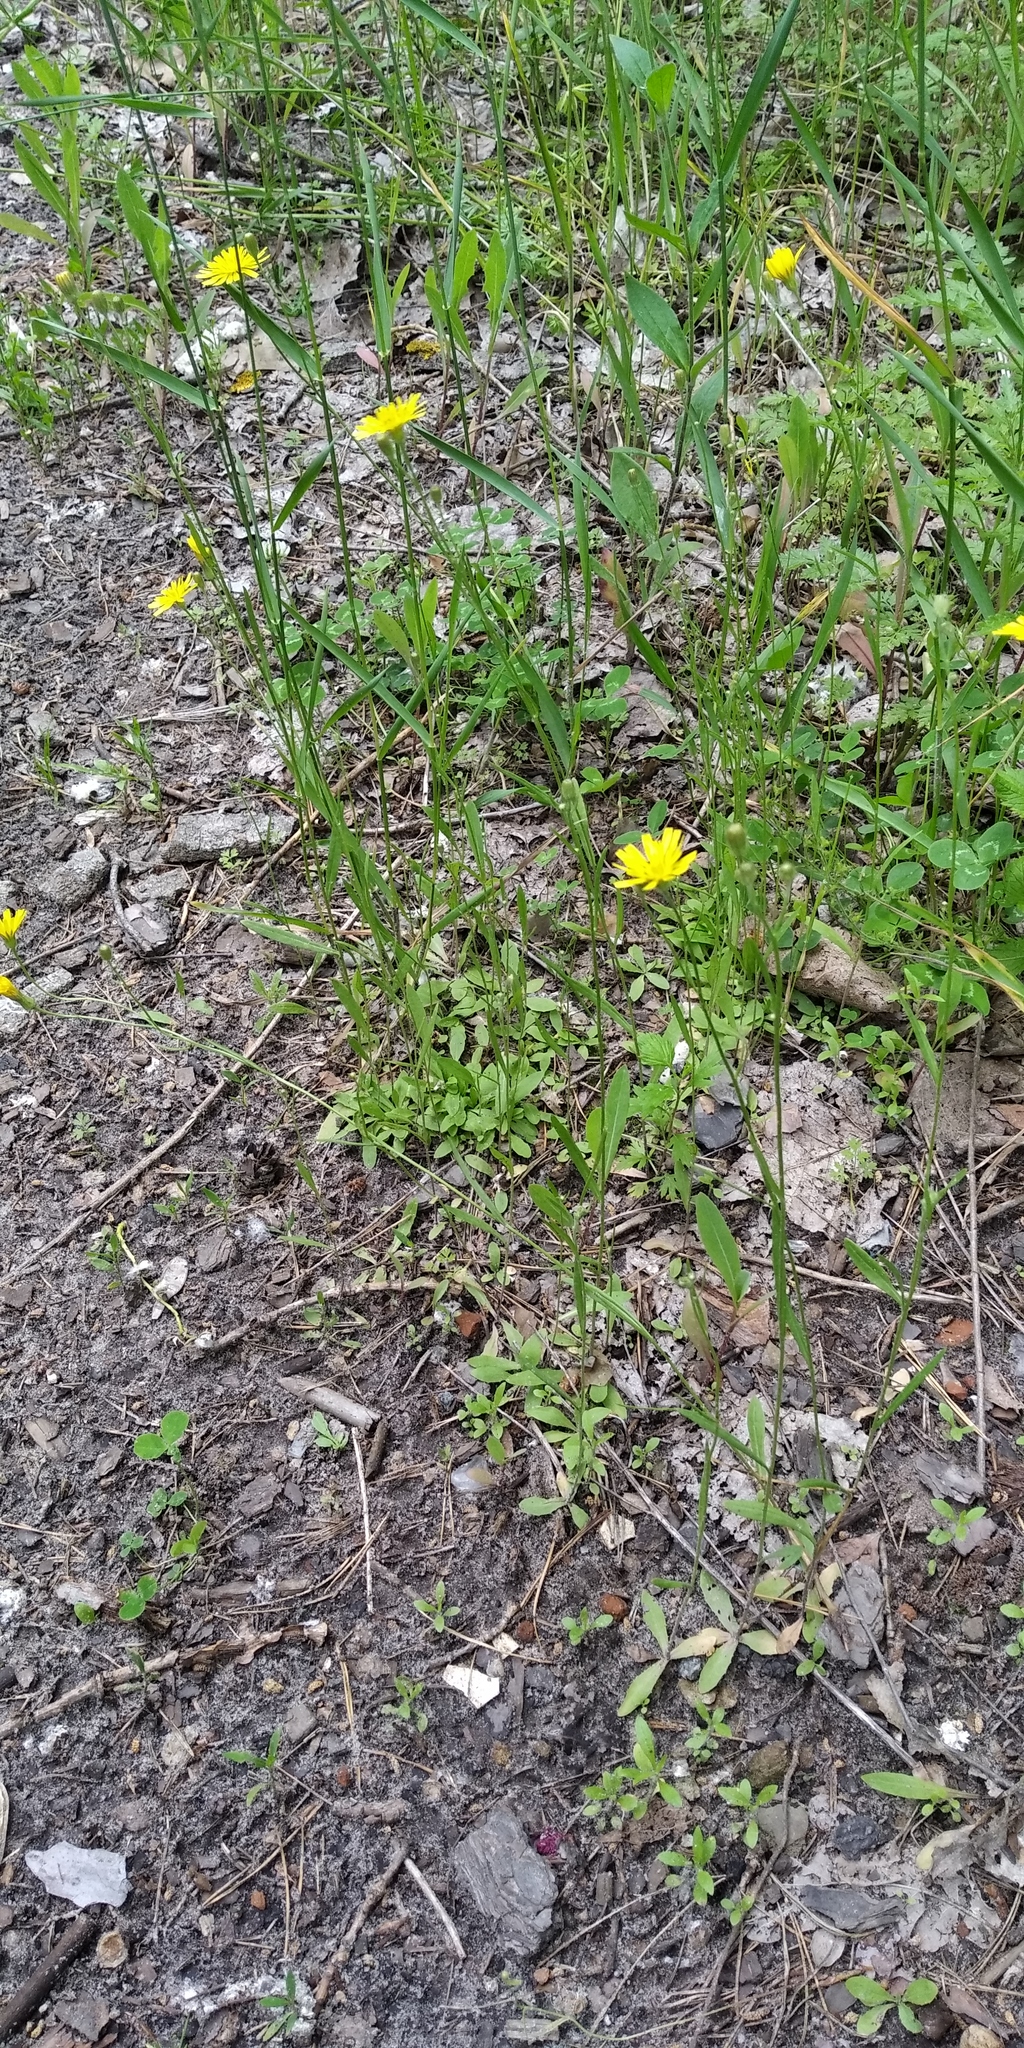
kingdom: Plantae
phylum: Tracheophyta
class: Magnoliopsida
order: Asterales
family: Asteraceae
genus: Crepis
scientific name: Crepis tectorum
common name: Narrow-leaved hawk's-beard
